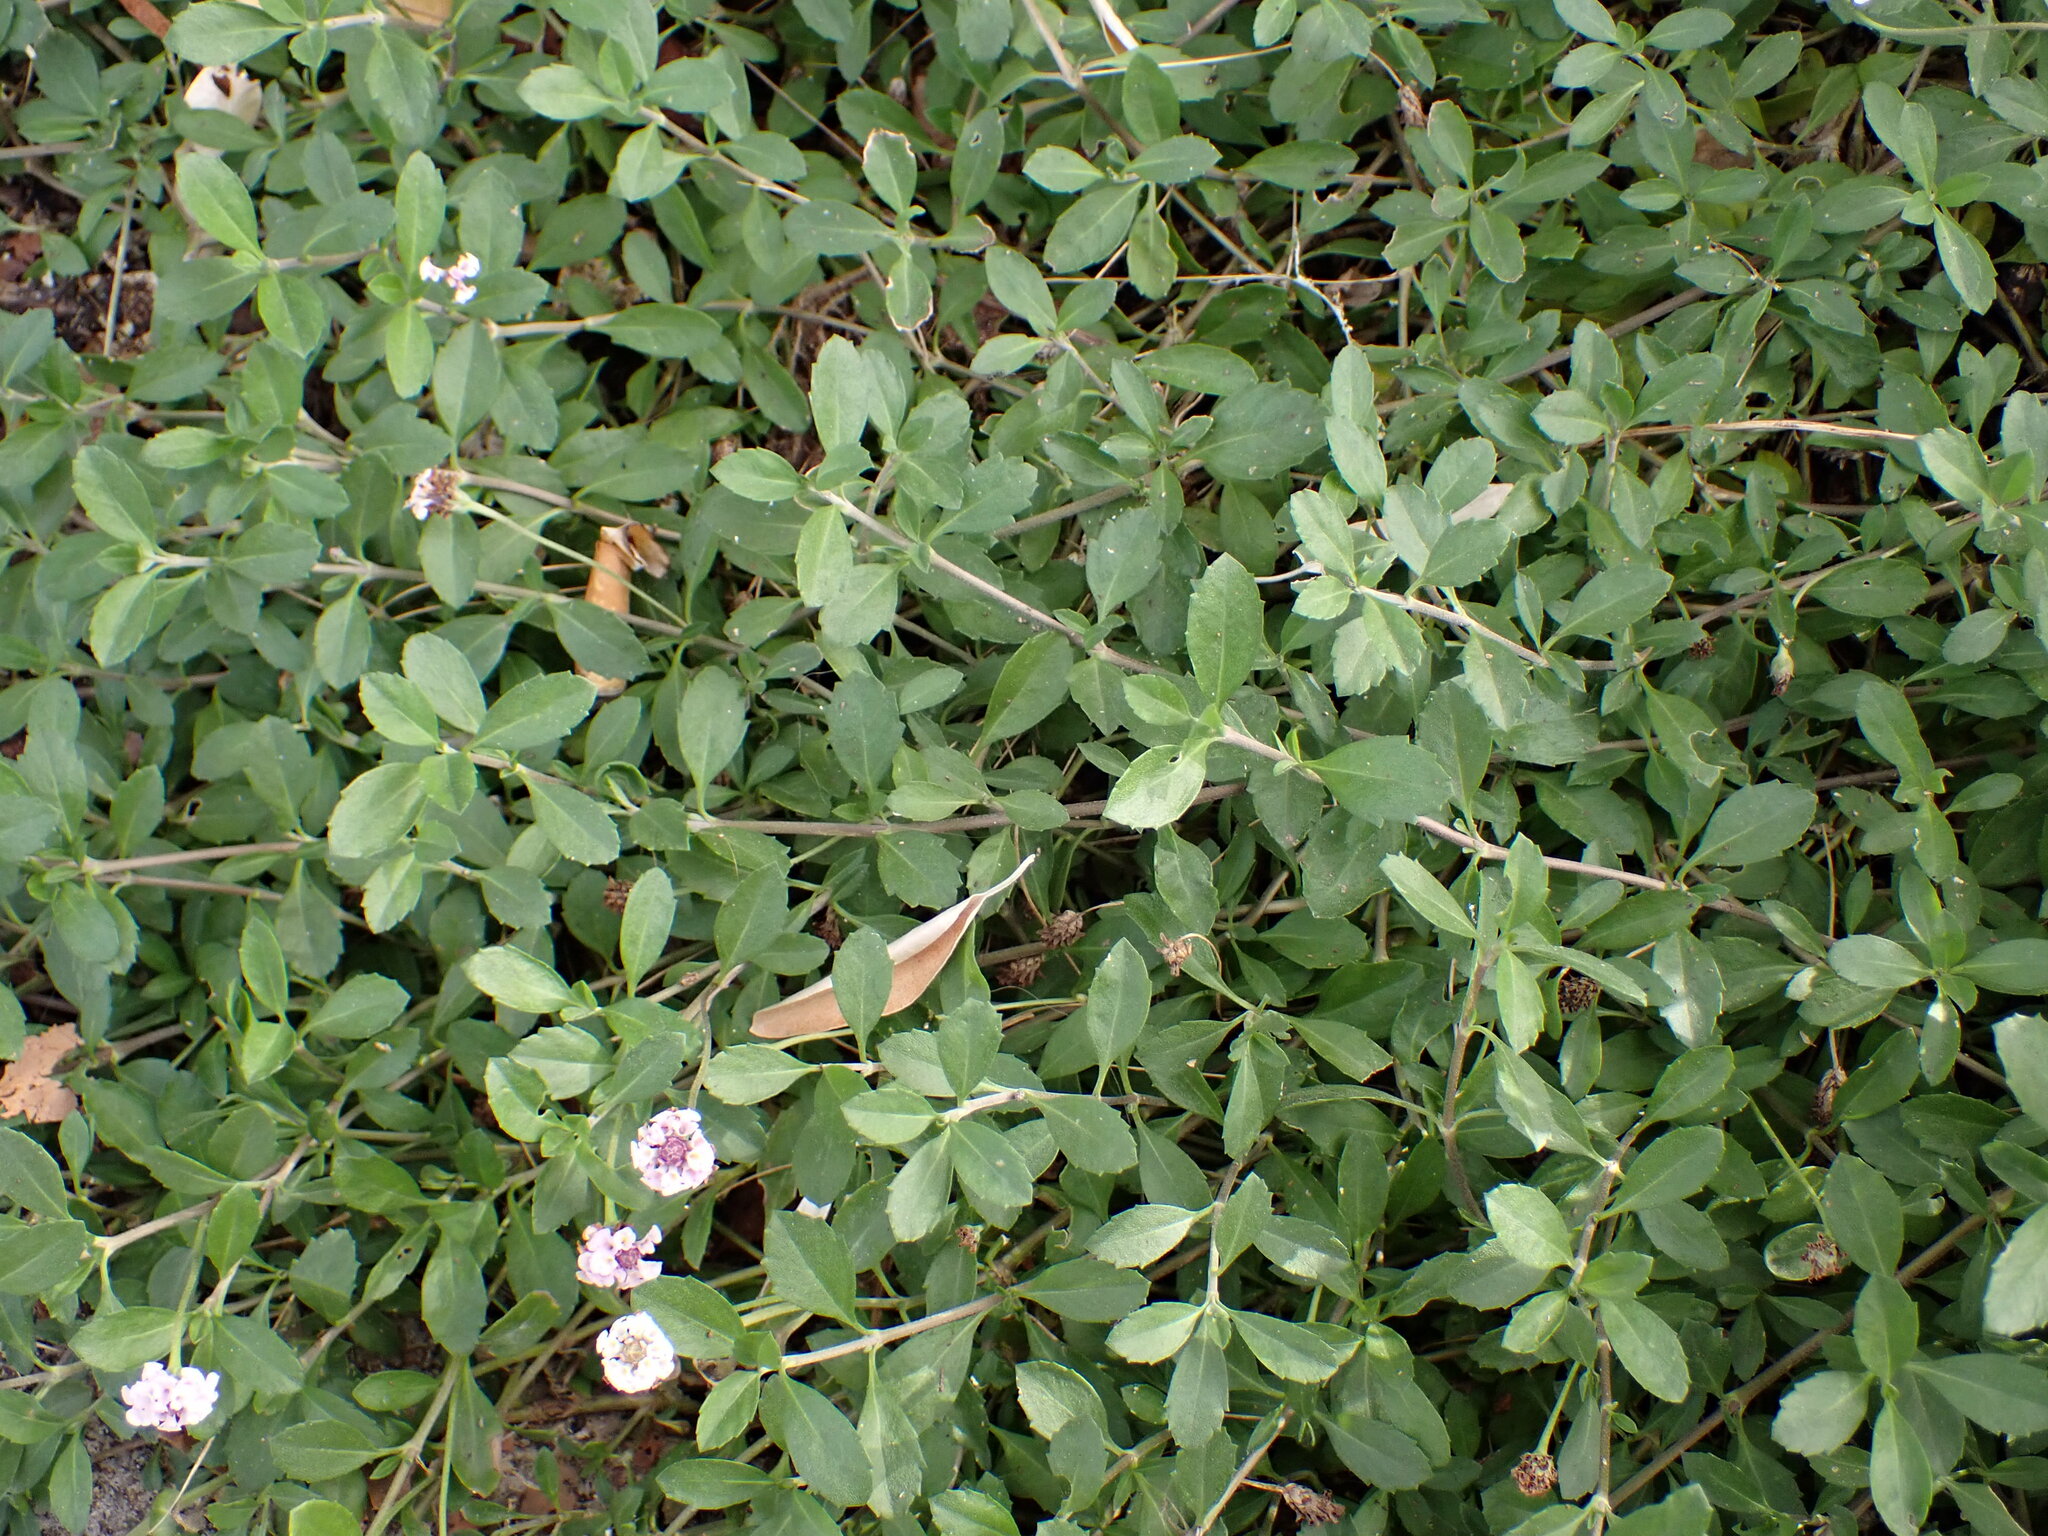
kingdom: Plantae
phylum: Tracheophyta
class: Magnoliopsida
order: Lamiales
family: Verbenaceae
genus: Phyla
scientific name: Phyla nodiflora
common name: Frogfruit
